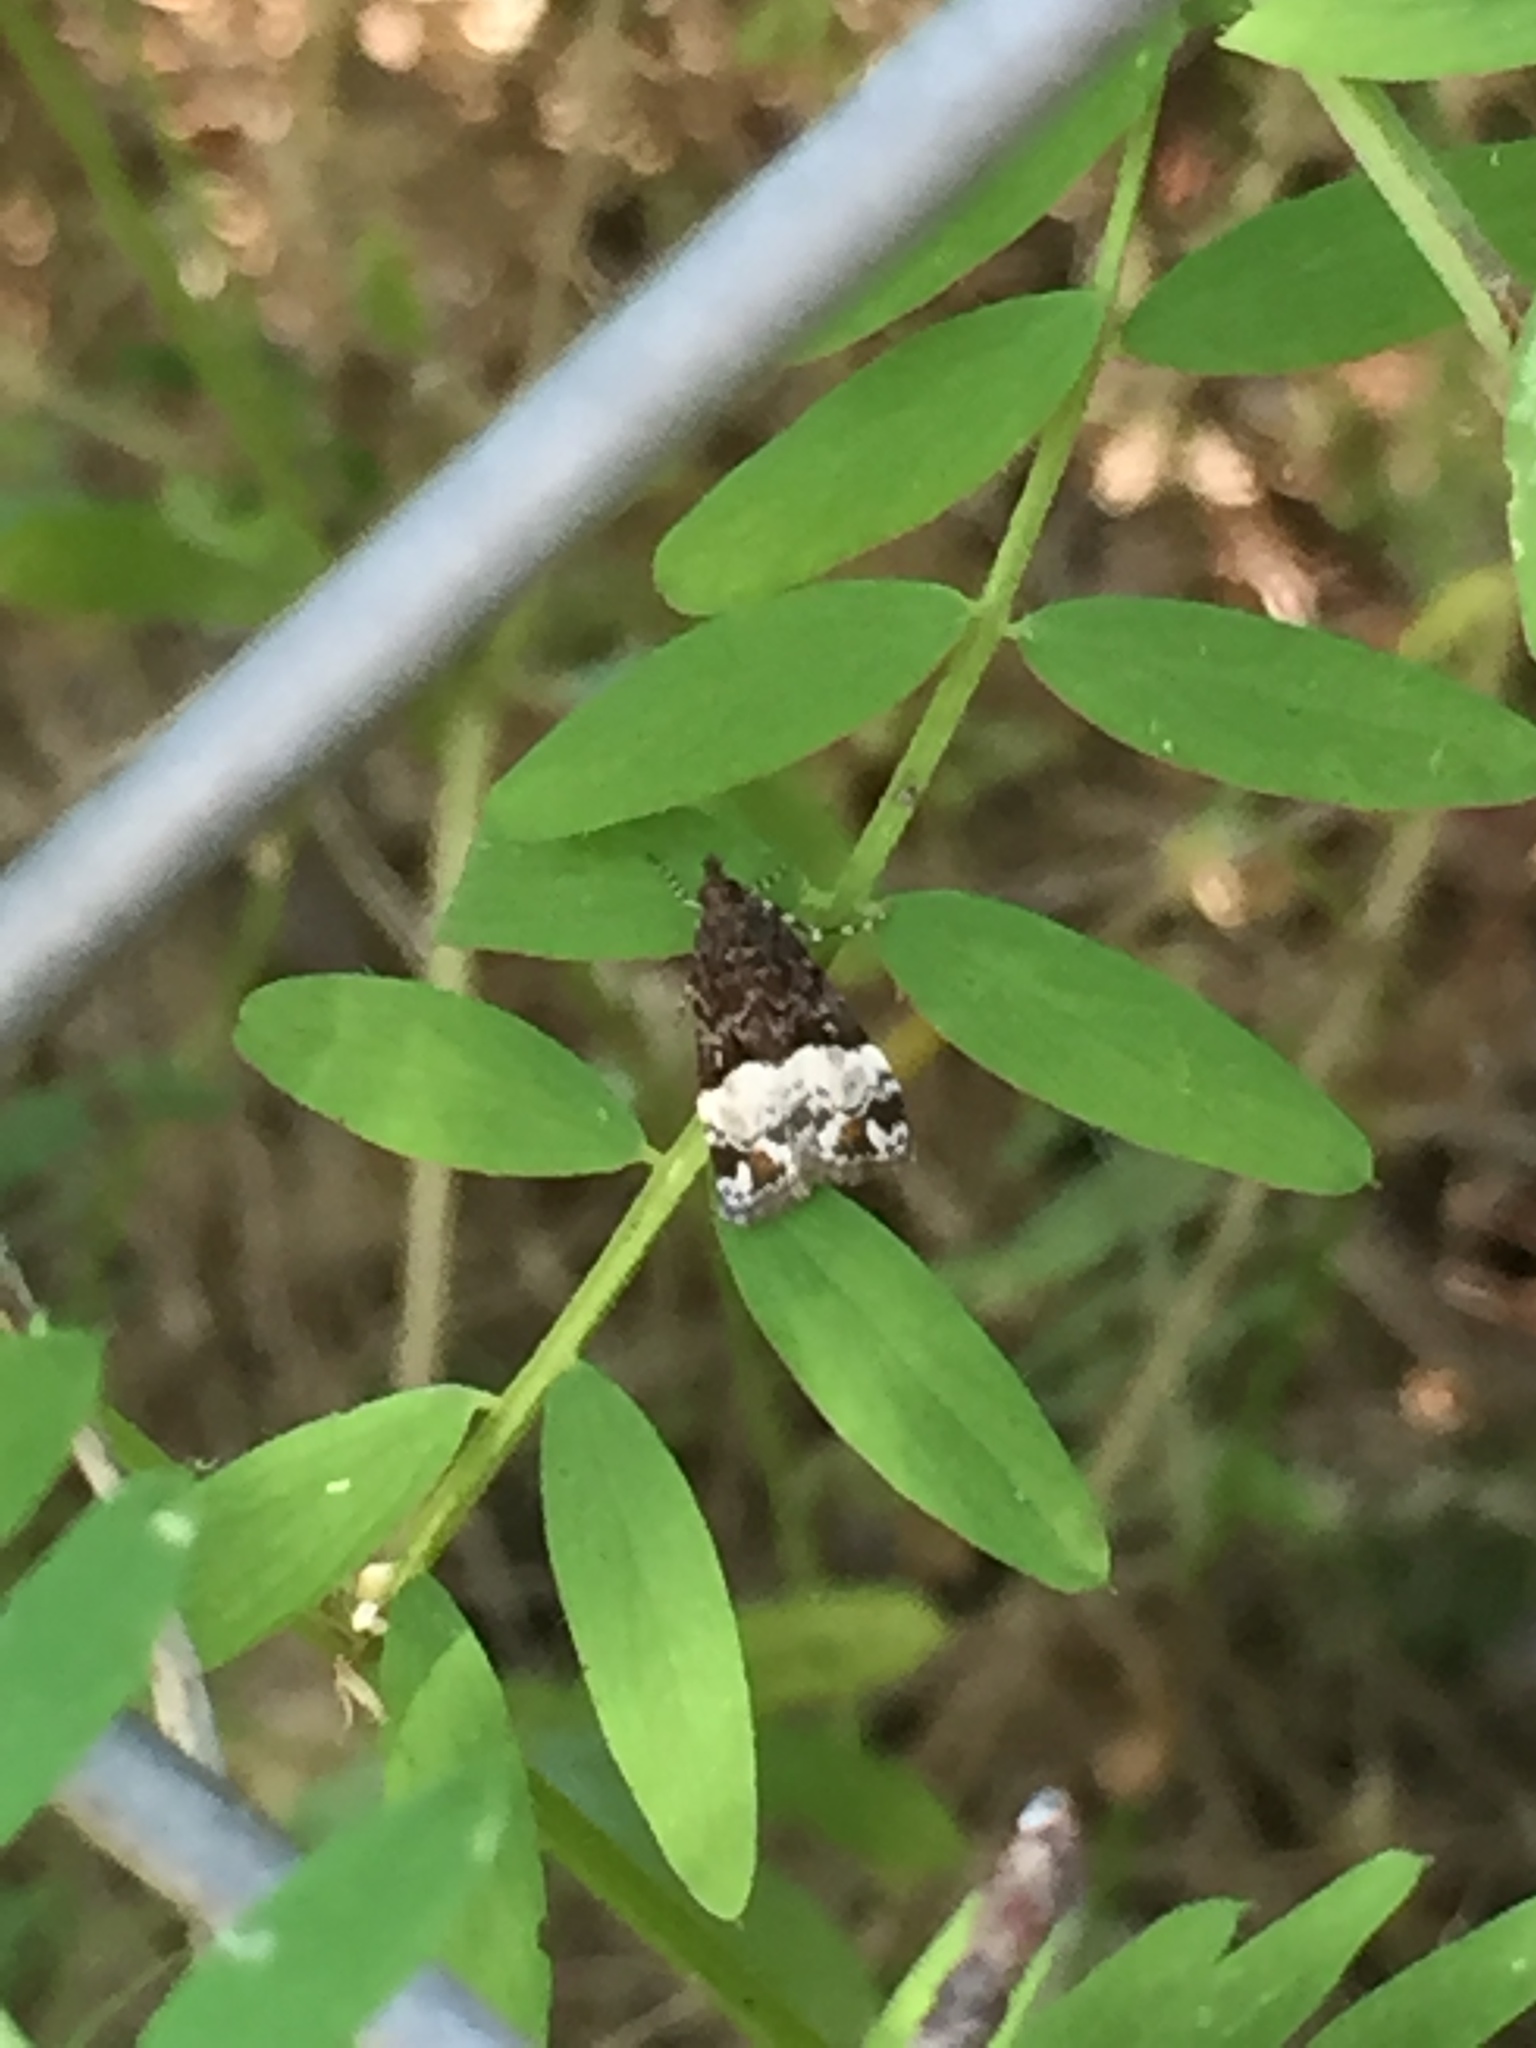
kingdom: Animalia
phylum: Arthropoda
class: Insecta
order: Lepidoptera
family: Crambidae
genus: Scoparia
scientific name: Scoparia minusculalis
